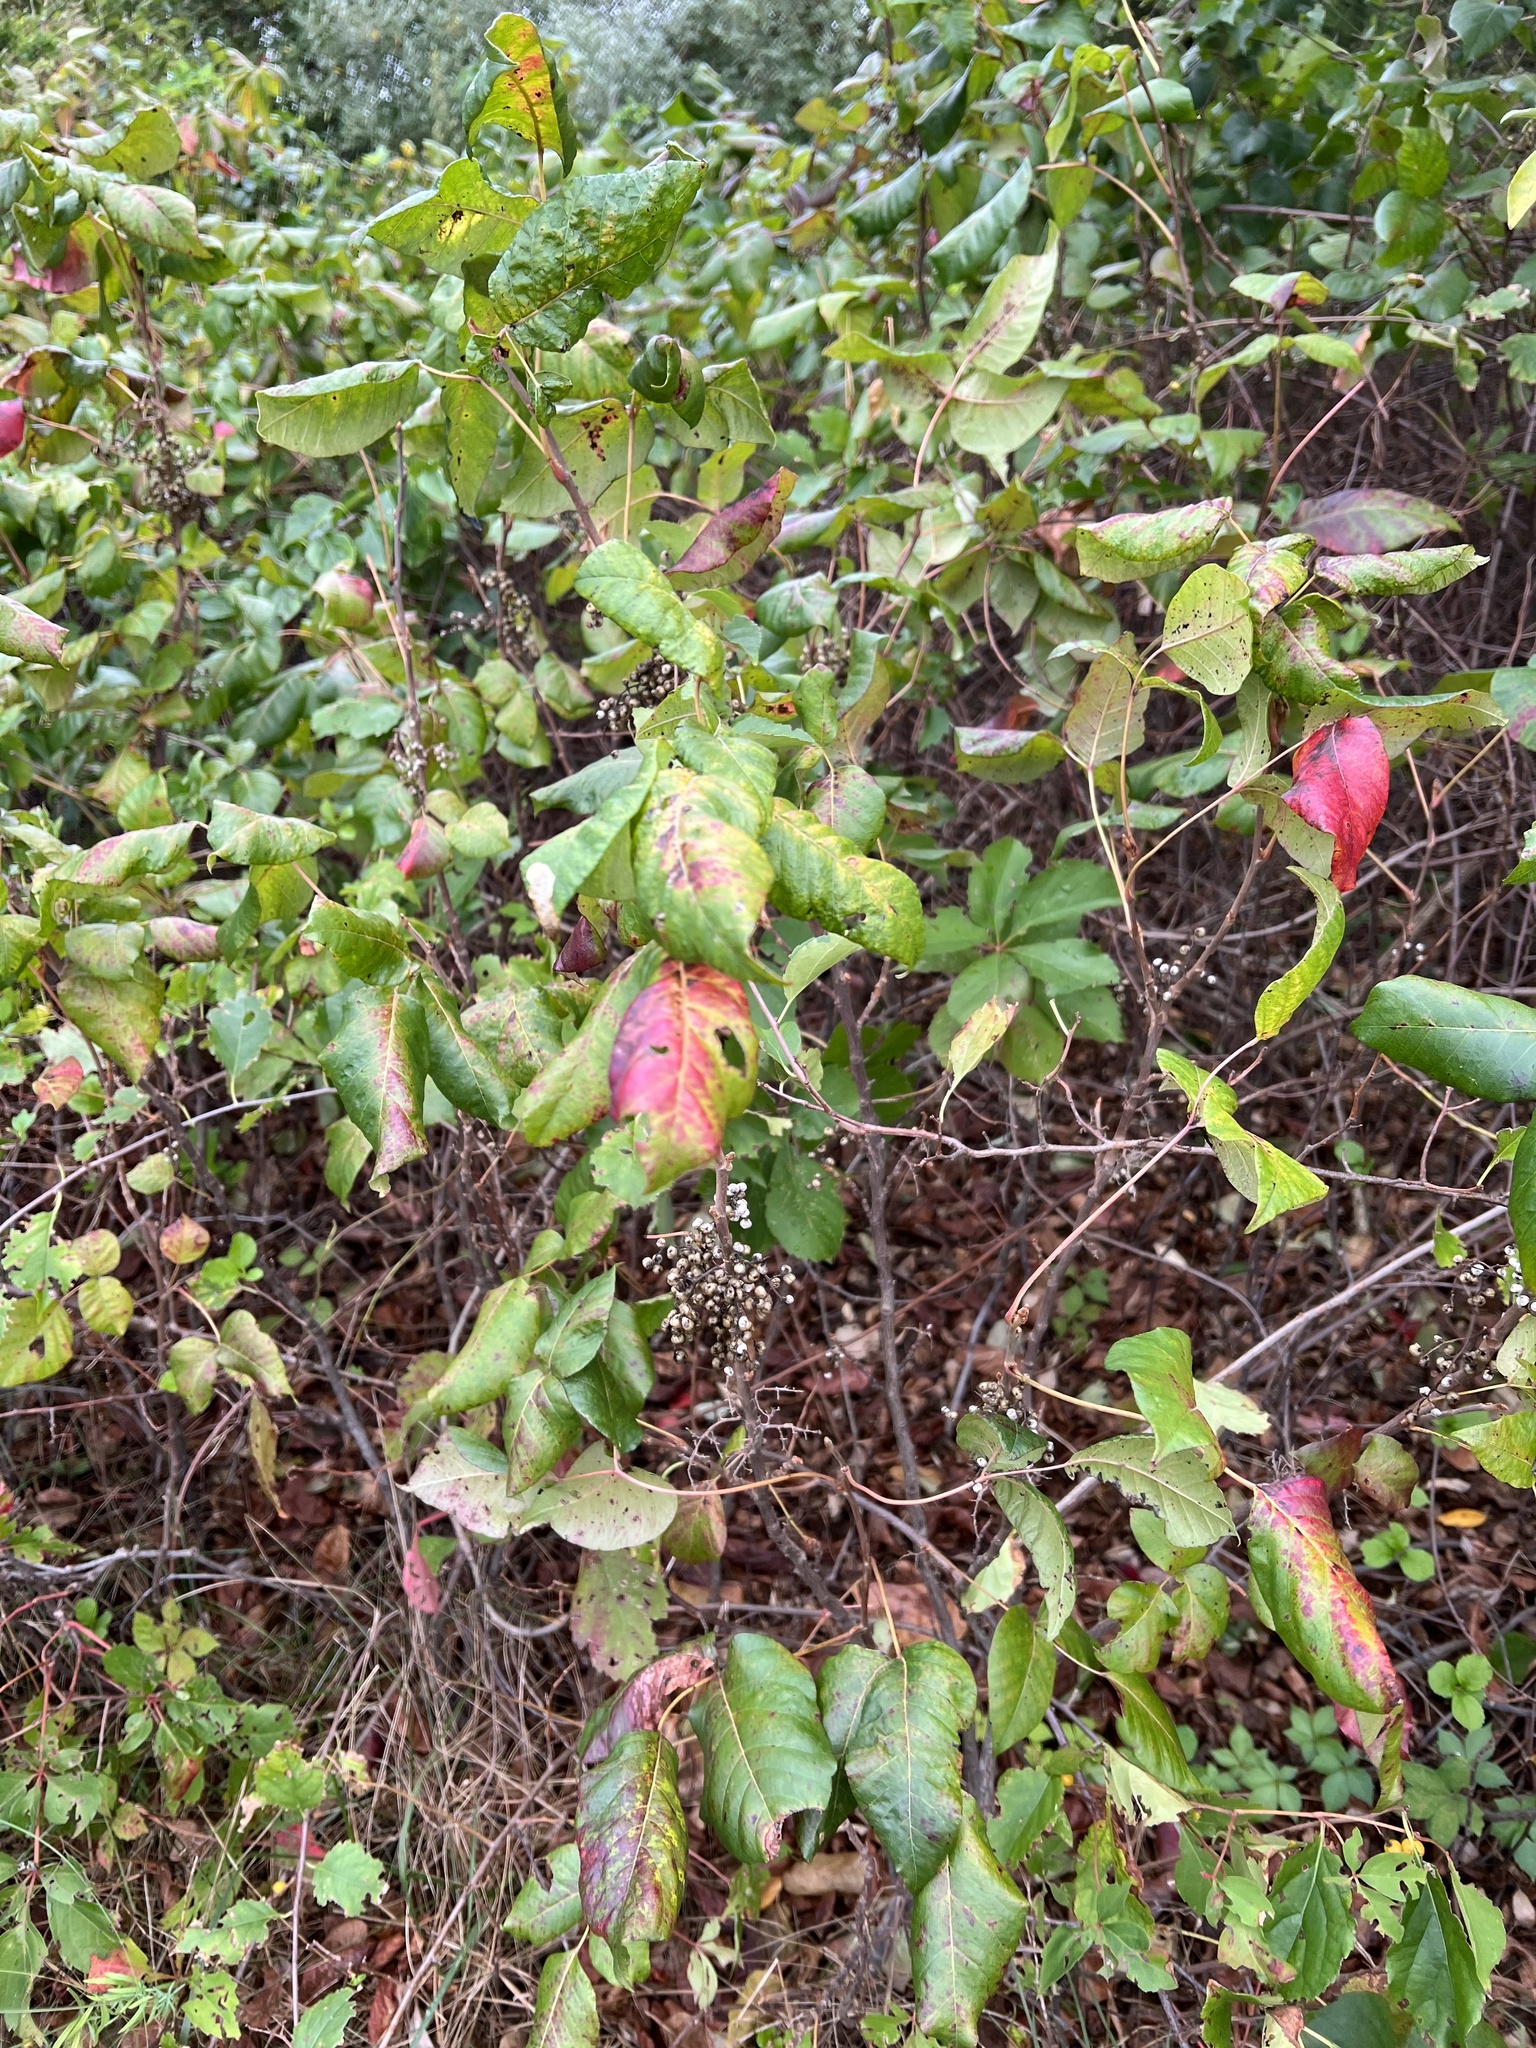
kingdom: Plantae
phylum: Tracheophyta
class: Magnoliopsida
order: Sapindales
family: Anacardiaceae
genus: Toxicodendron
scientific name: Toxicodendron radicans
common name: Poison ivy
